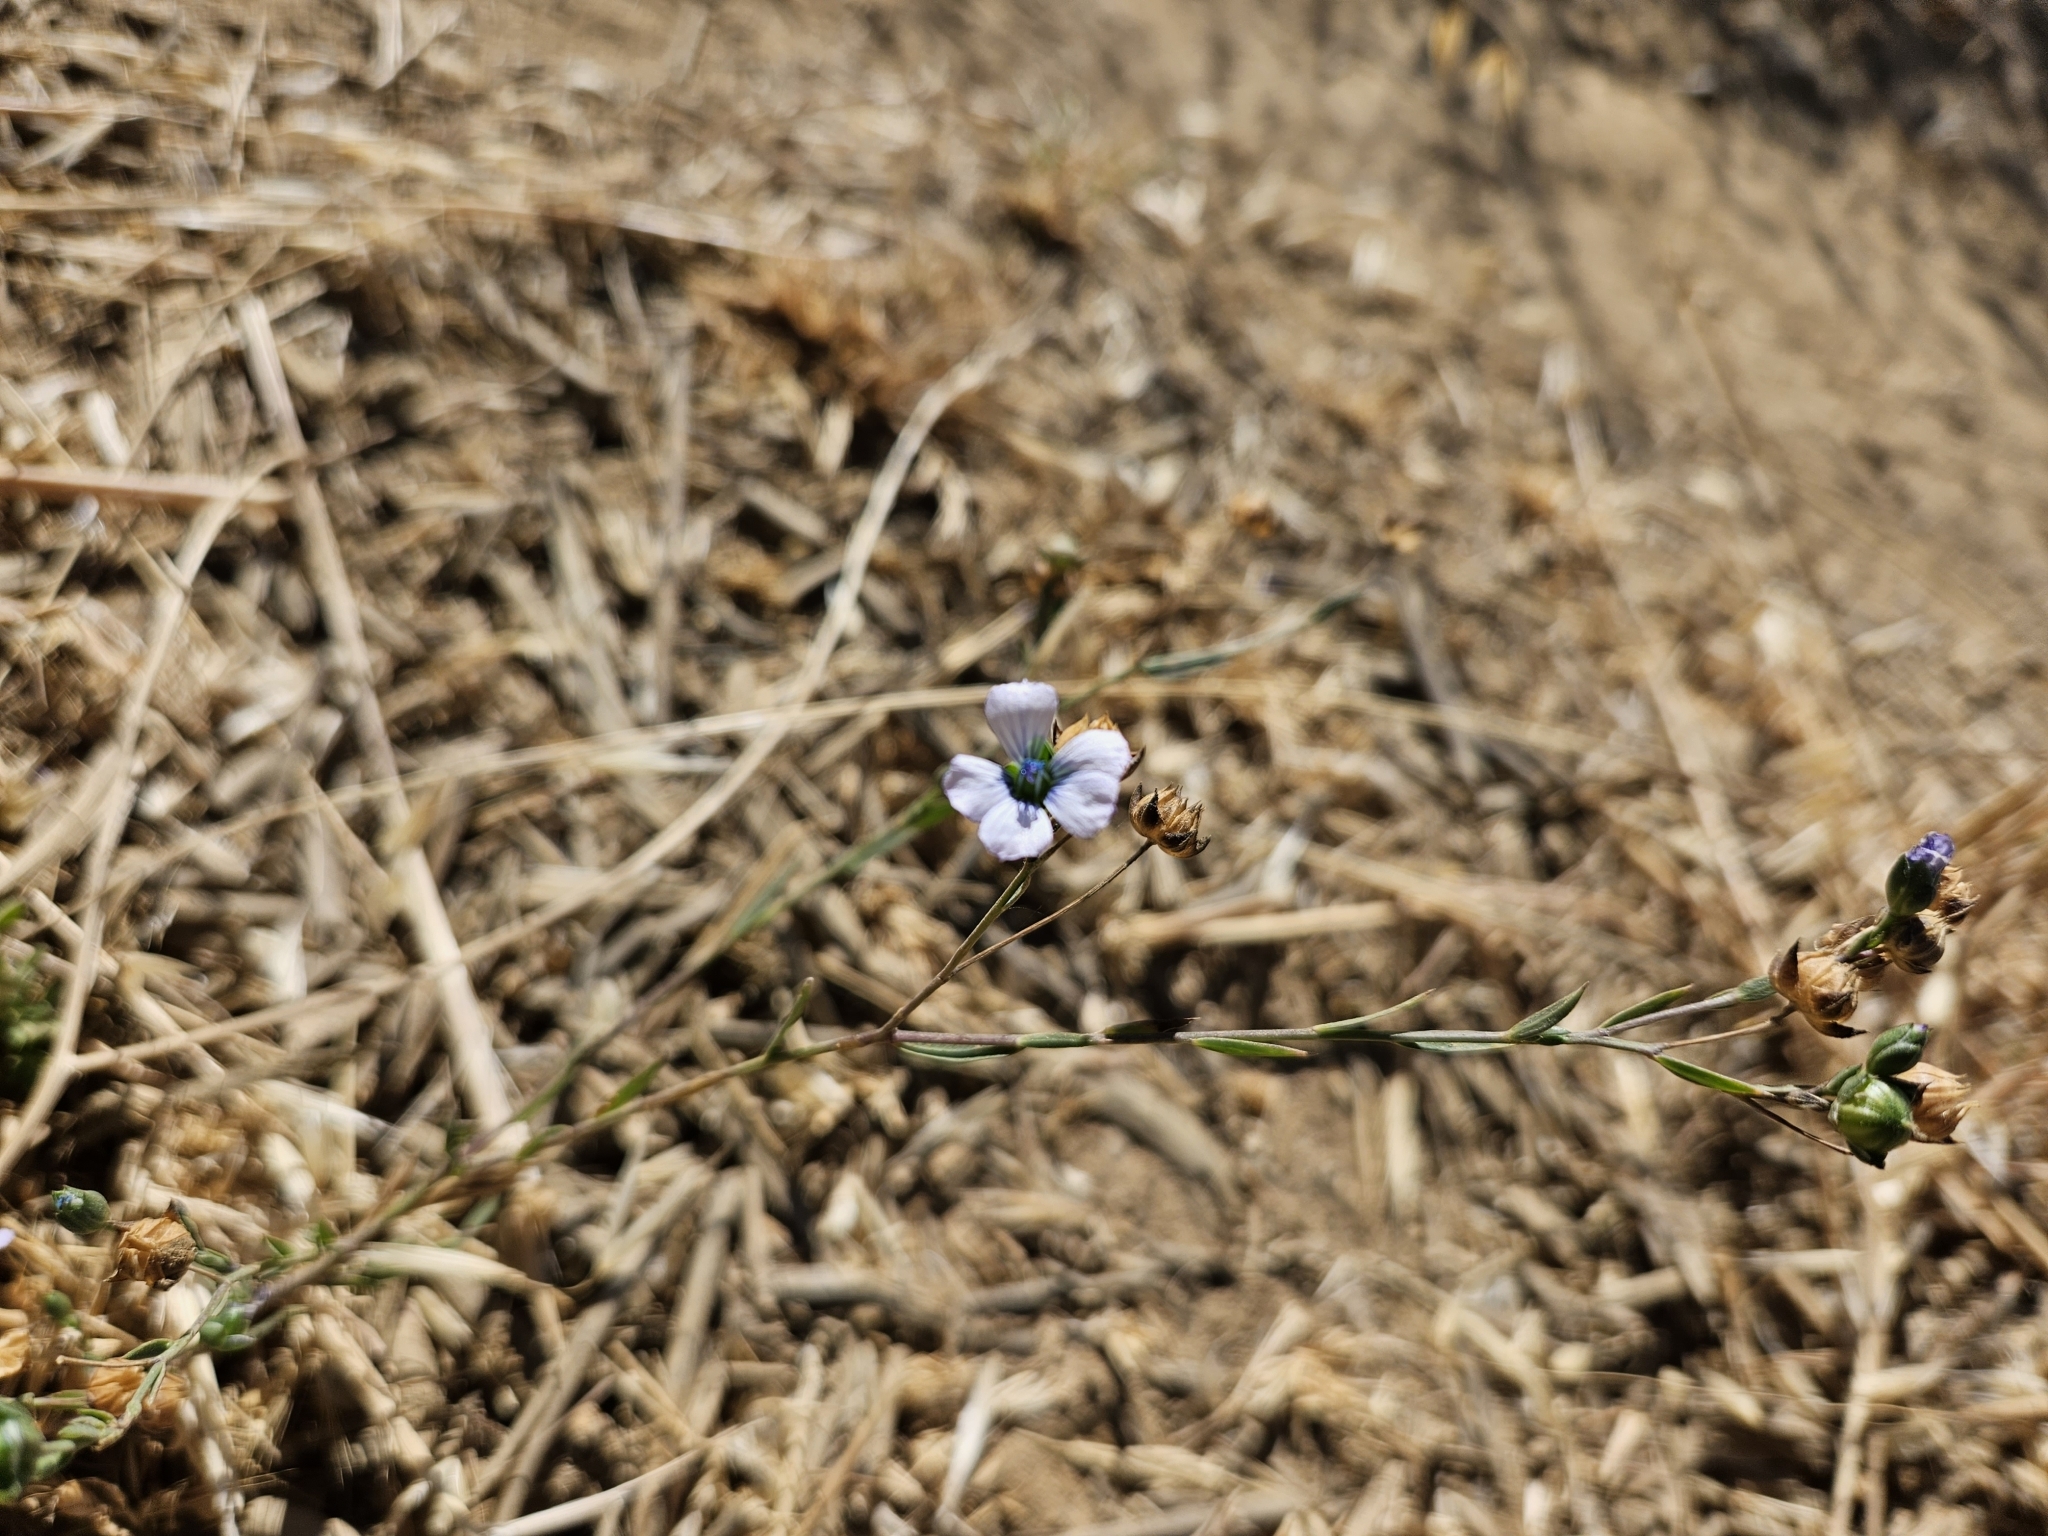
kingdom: Plantae
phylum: Tracheophyta
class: Magnoliopsida
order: Malpighiales
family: Linaceae
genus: Linum
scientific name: Linum bienne
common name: Pale flax
